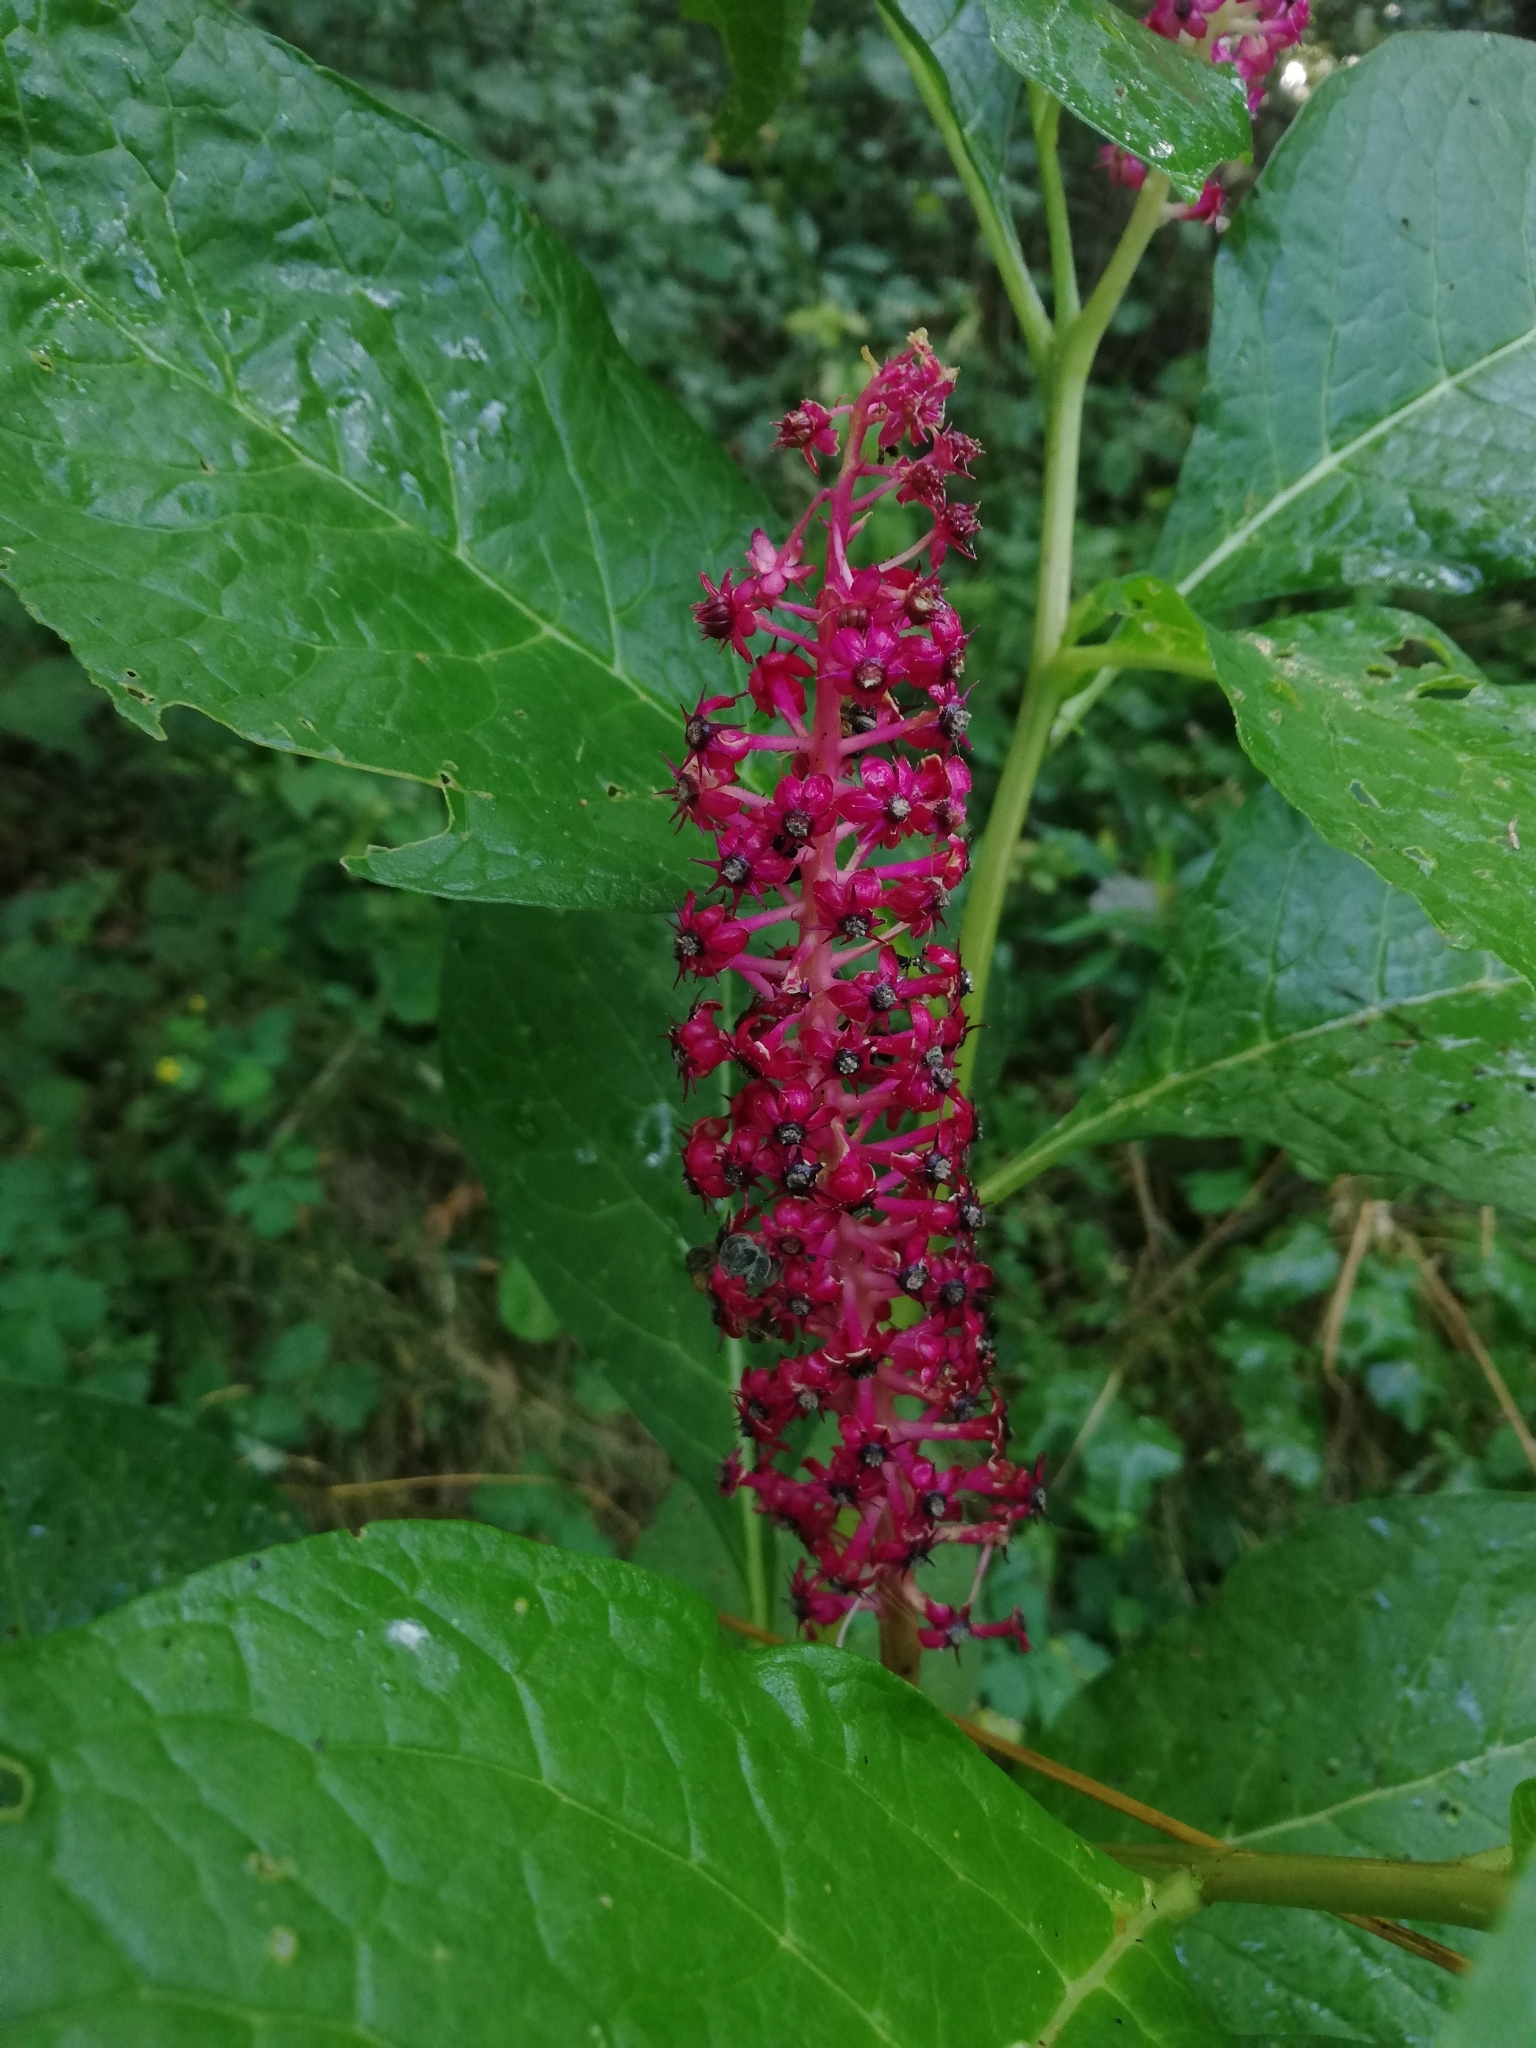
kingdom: Plantae
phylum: Tracheophyta
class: Magnoliopsida
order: Caryophyllales
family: Phytolaccaceae
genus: Phytolacca
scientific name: Phytolacca acinosa
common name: Indian pokeweed
